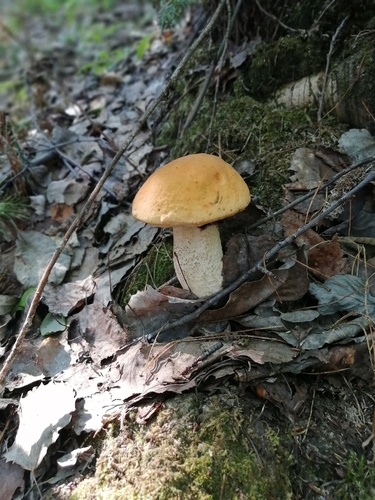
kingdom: Fungi
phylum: Basidiomycota
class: Agaricomycetes
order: Boletales
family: Boletaceae
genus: Leccinum
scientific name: Leccinum albostipitatum
